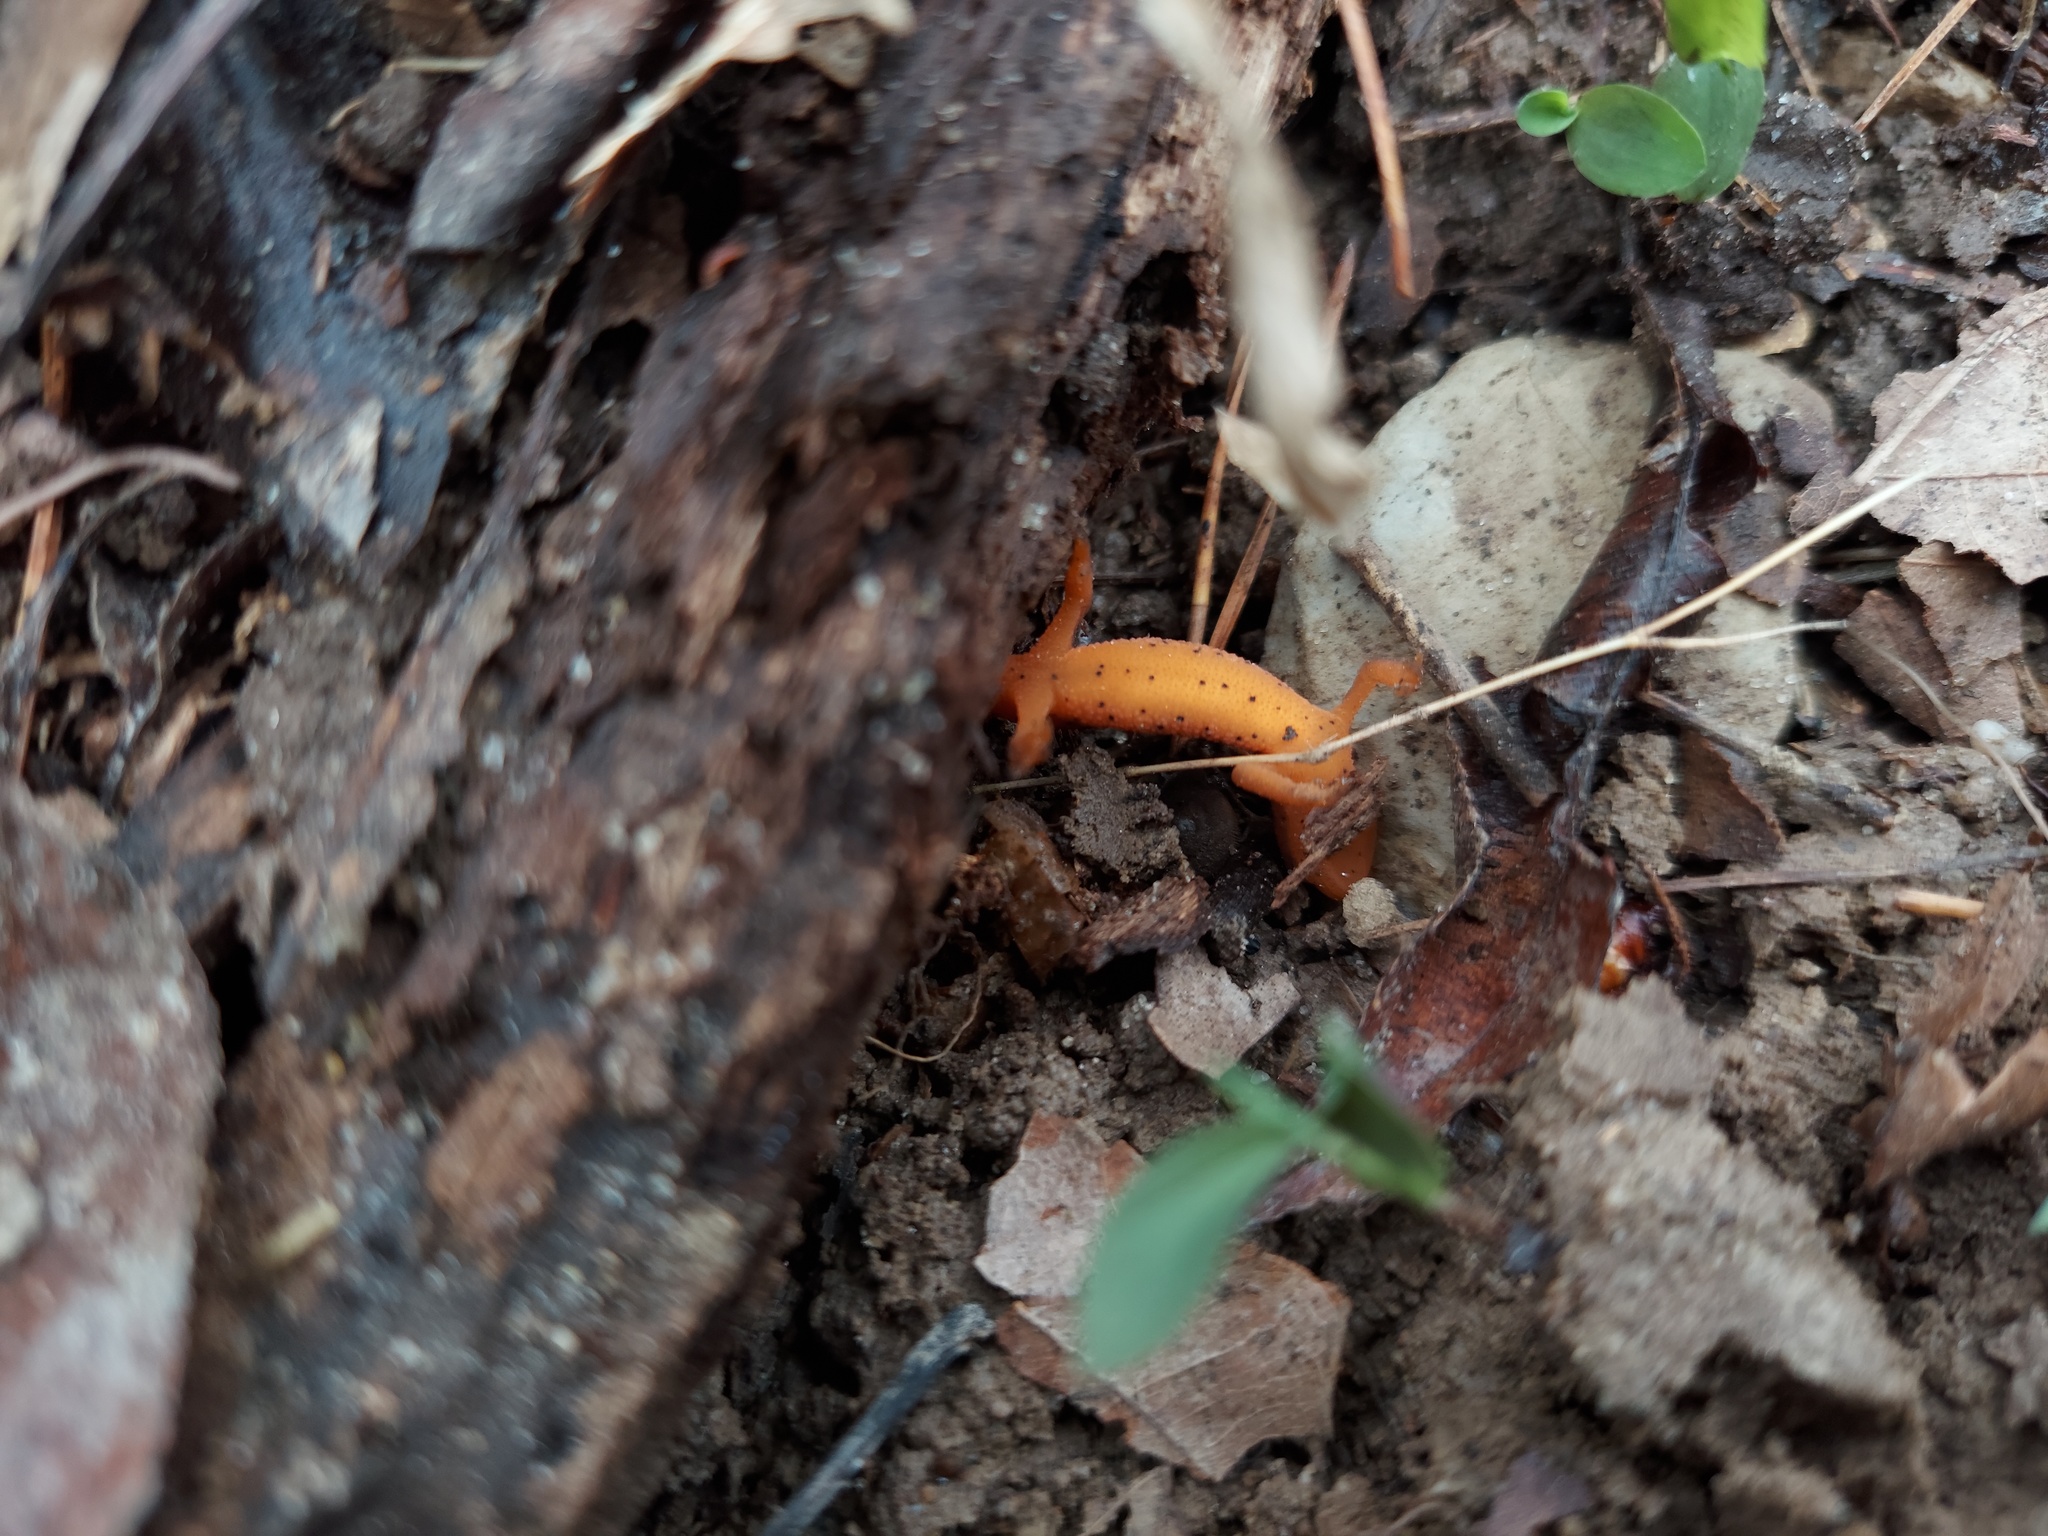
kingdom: Animalia
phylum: Chordata
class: Amphibia
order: Caudata
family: Salamandridae
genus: Notophthalmus
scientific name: Notophthalmus viridescens
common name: Eastern newt
